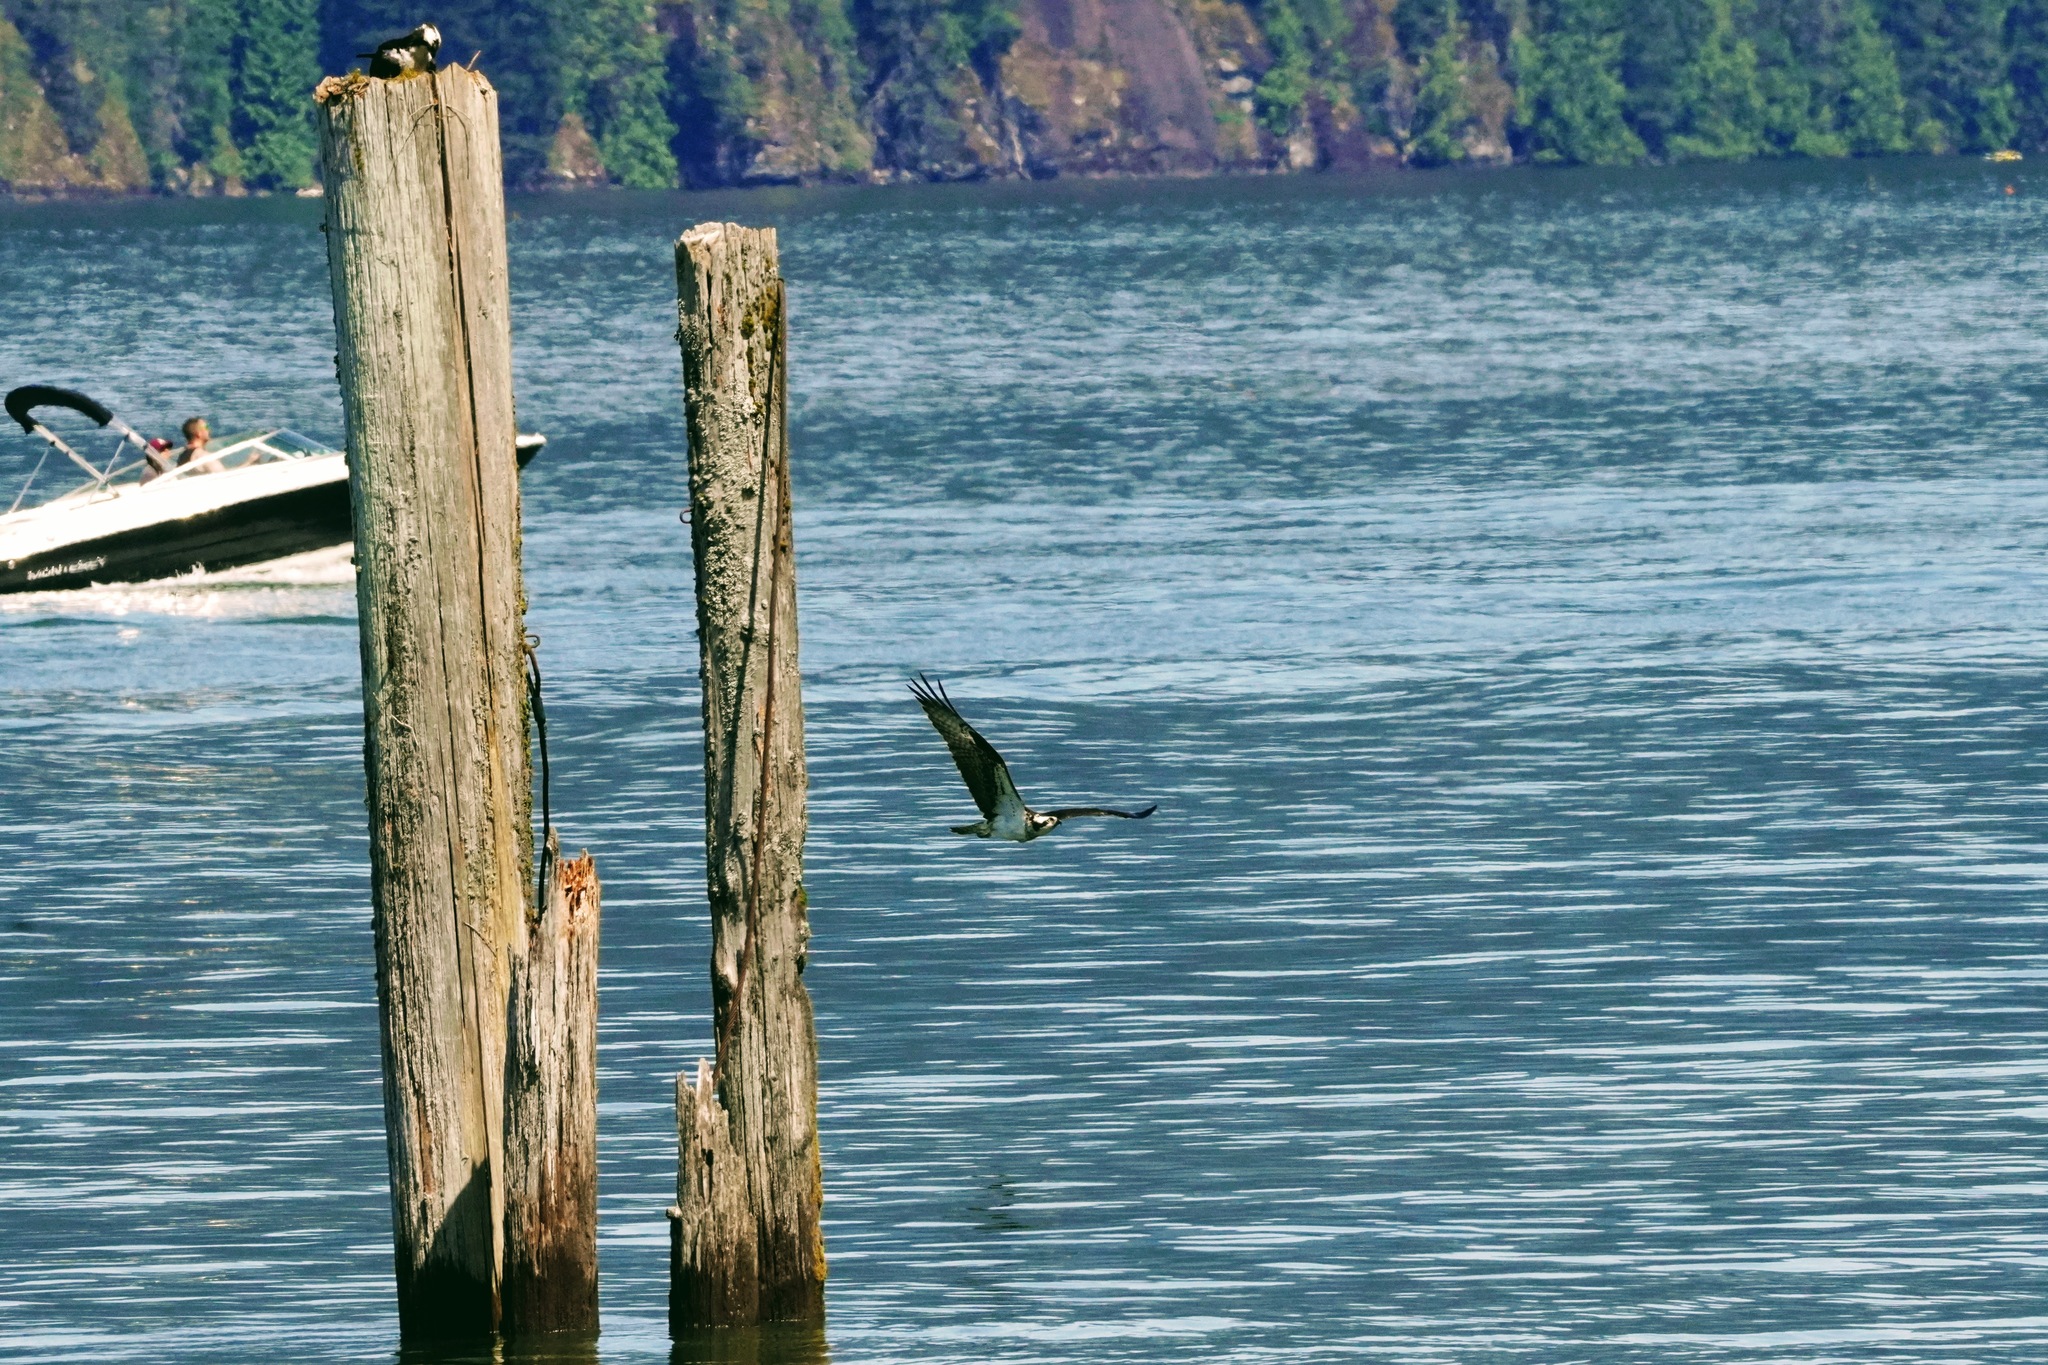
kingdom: Animalia
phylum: Chordata
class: Aves
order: Accipitriformes
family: Pandionidae
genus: Pandion
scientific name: Pandion haliaetus
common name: Osprey
